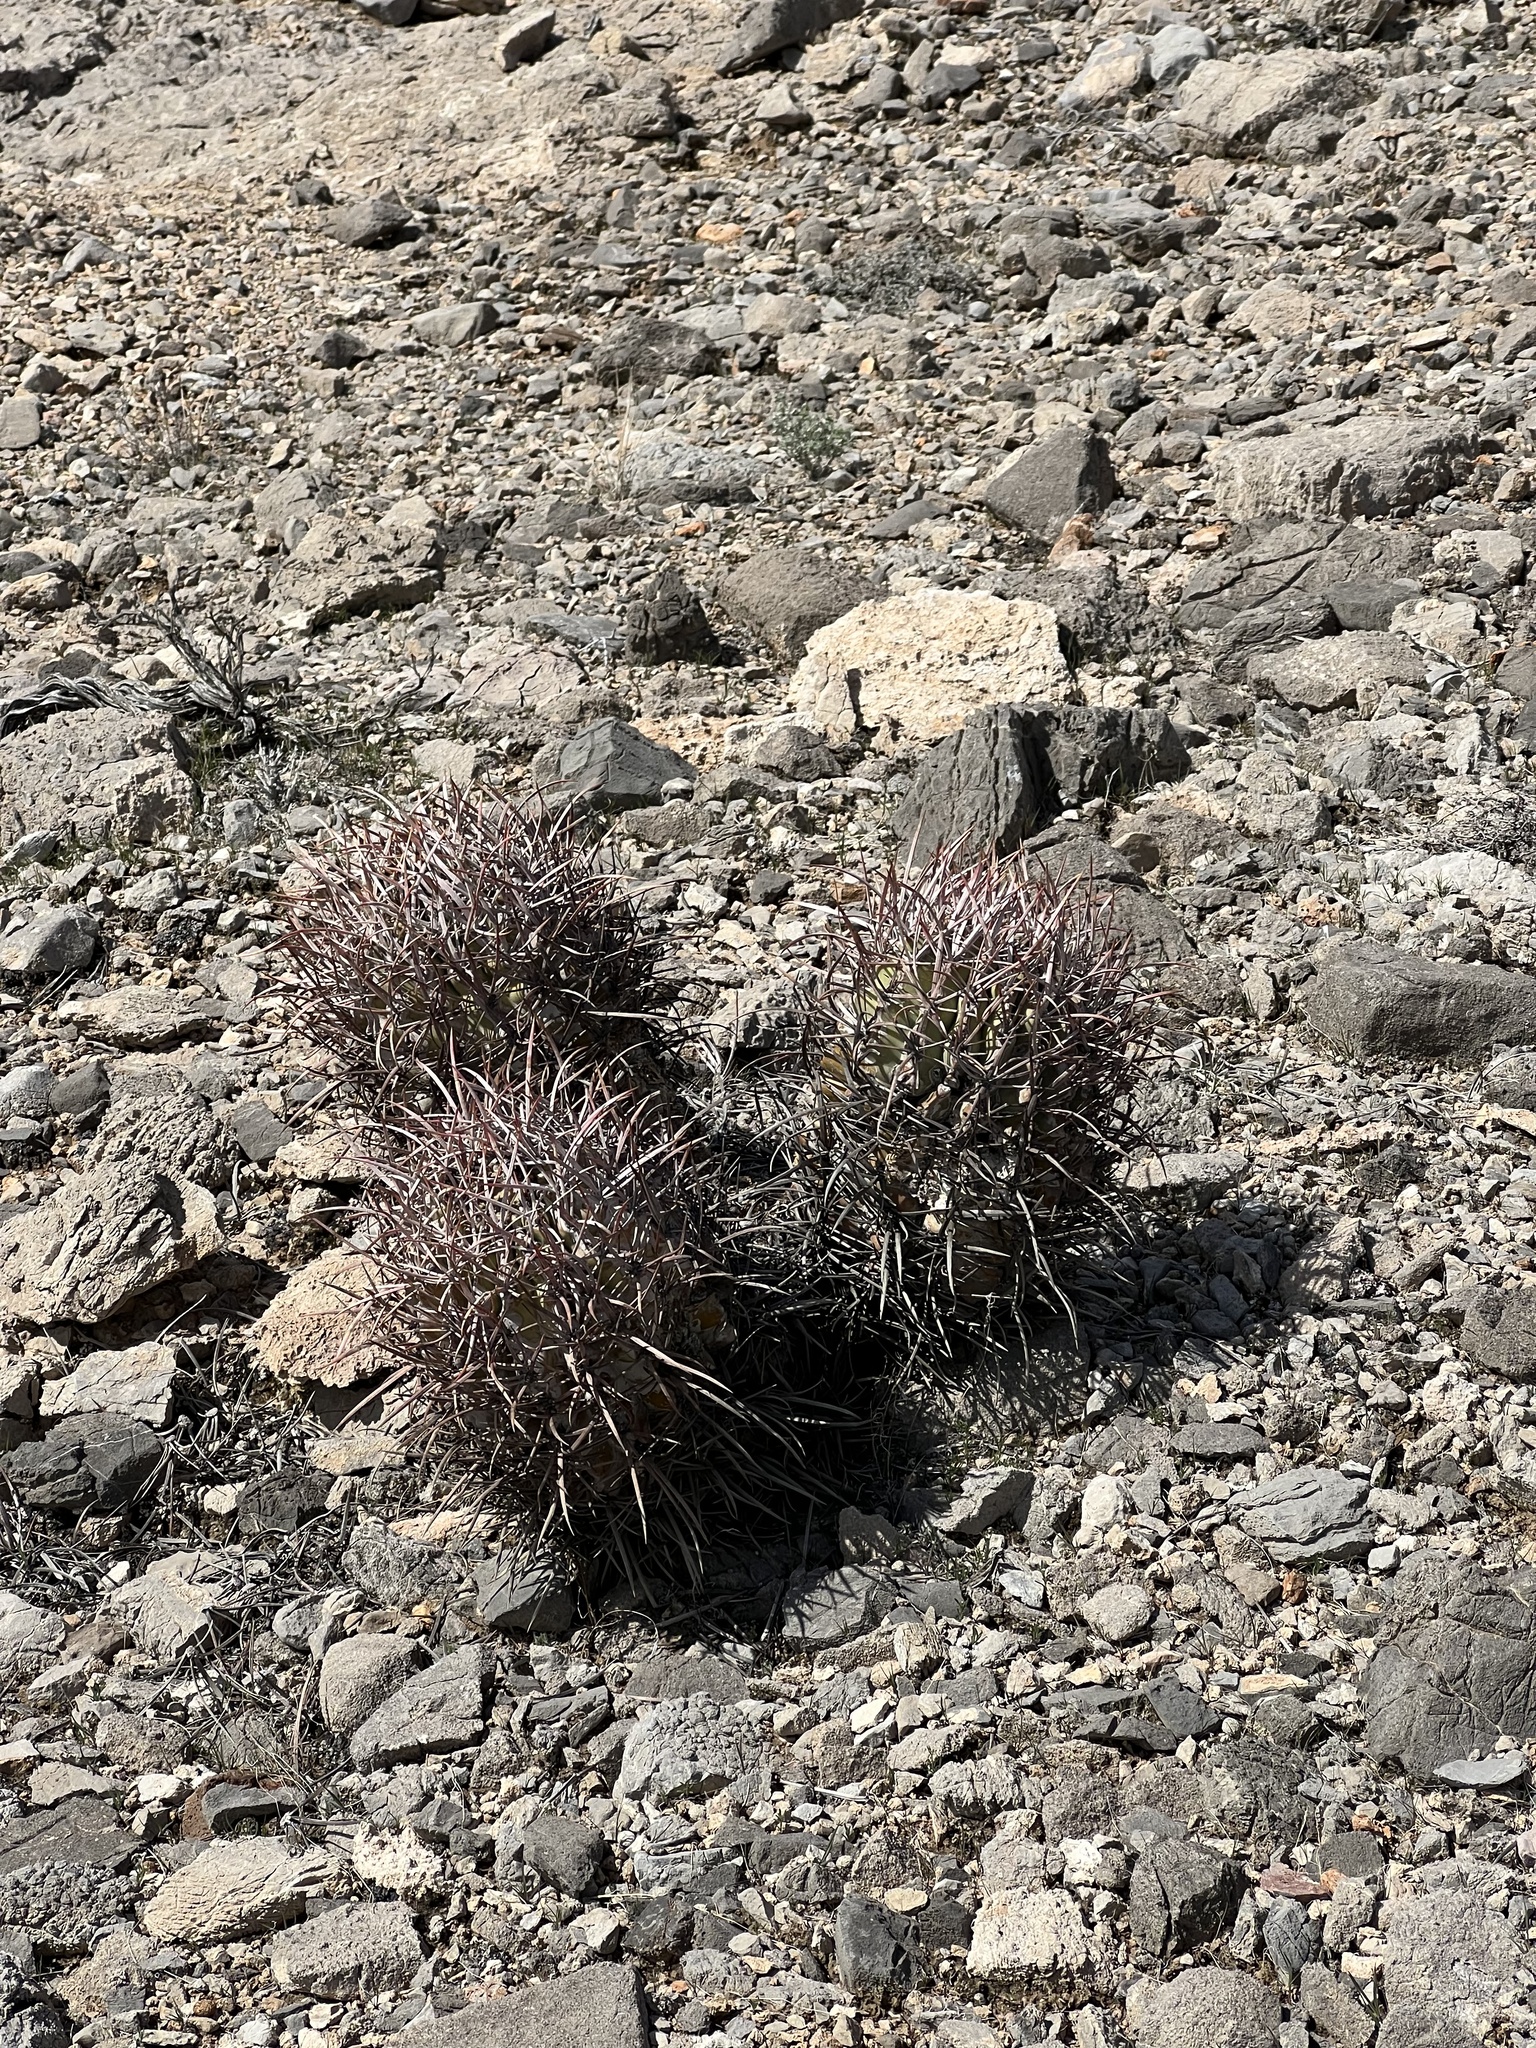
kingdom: Plantae
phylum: Tracheophyta
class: Magnoliopsida
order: Caryophyllales
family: Cactaceae
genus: Echinocactus
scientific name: Echinocactus polycephalus
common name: Cottontop cactus
